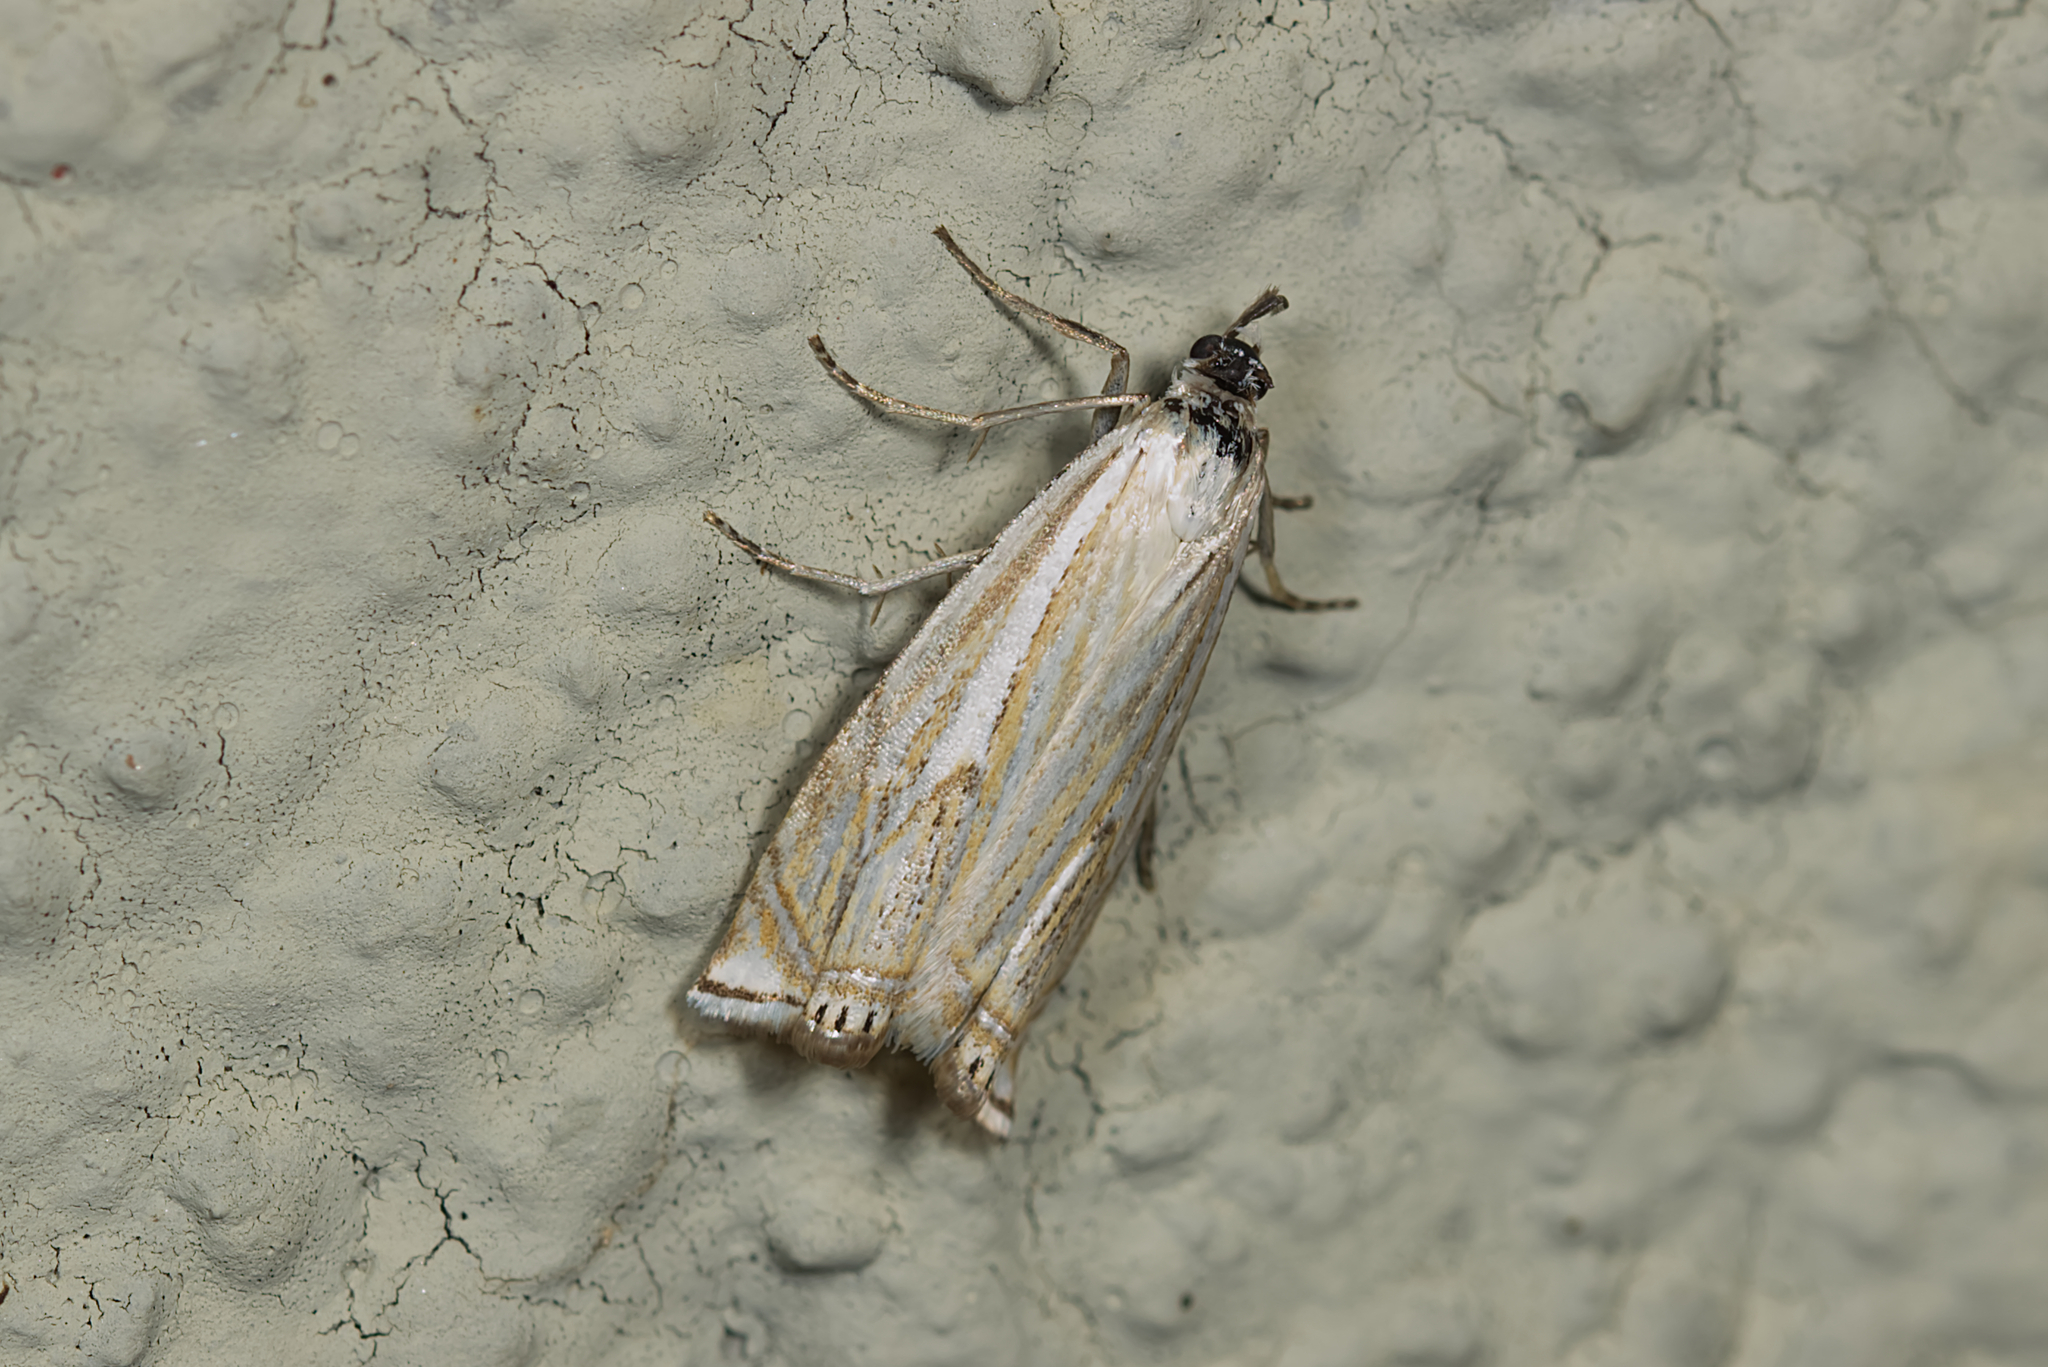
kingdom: Animalia
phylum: Arthropoda
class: Insecta
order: Lepidoptera
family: Crambidae
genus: Crambus
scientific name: Crambus nemorella
